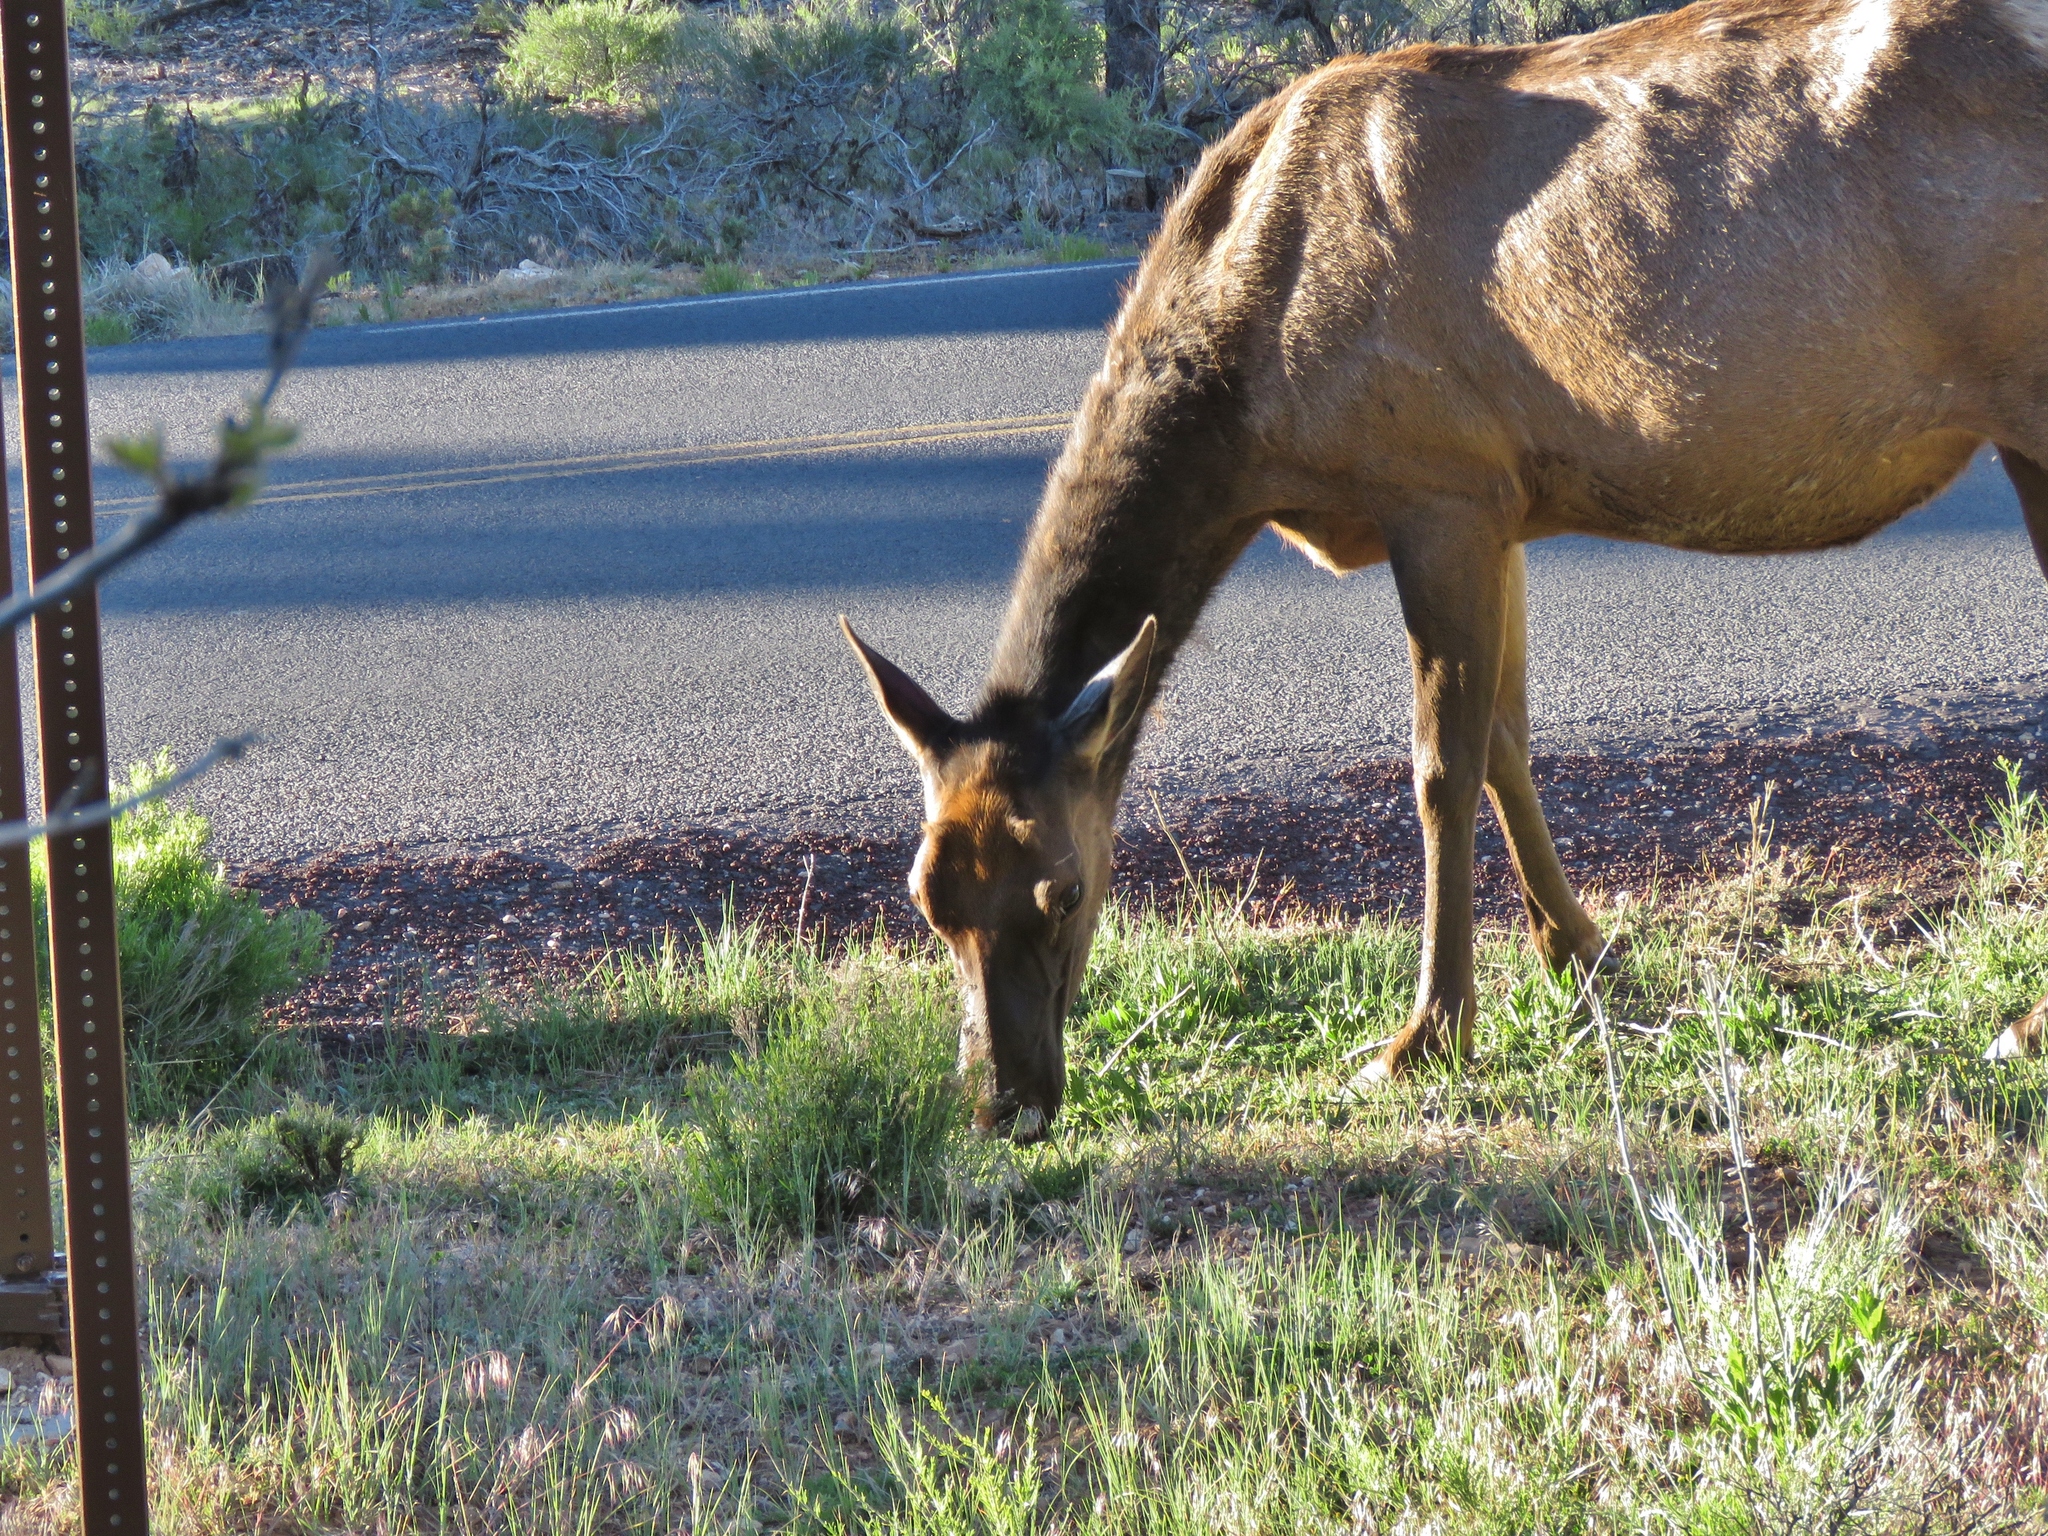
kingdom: Animalia
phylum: Chordata
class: Mammalia
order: Artiodactyla
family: Cervidae
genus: Cervus
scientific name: Cervus elaphus
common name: Red deer
